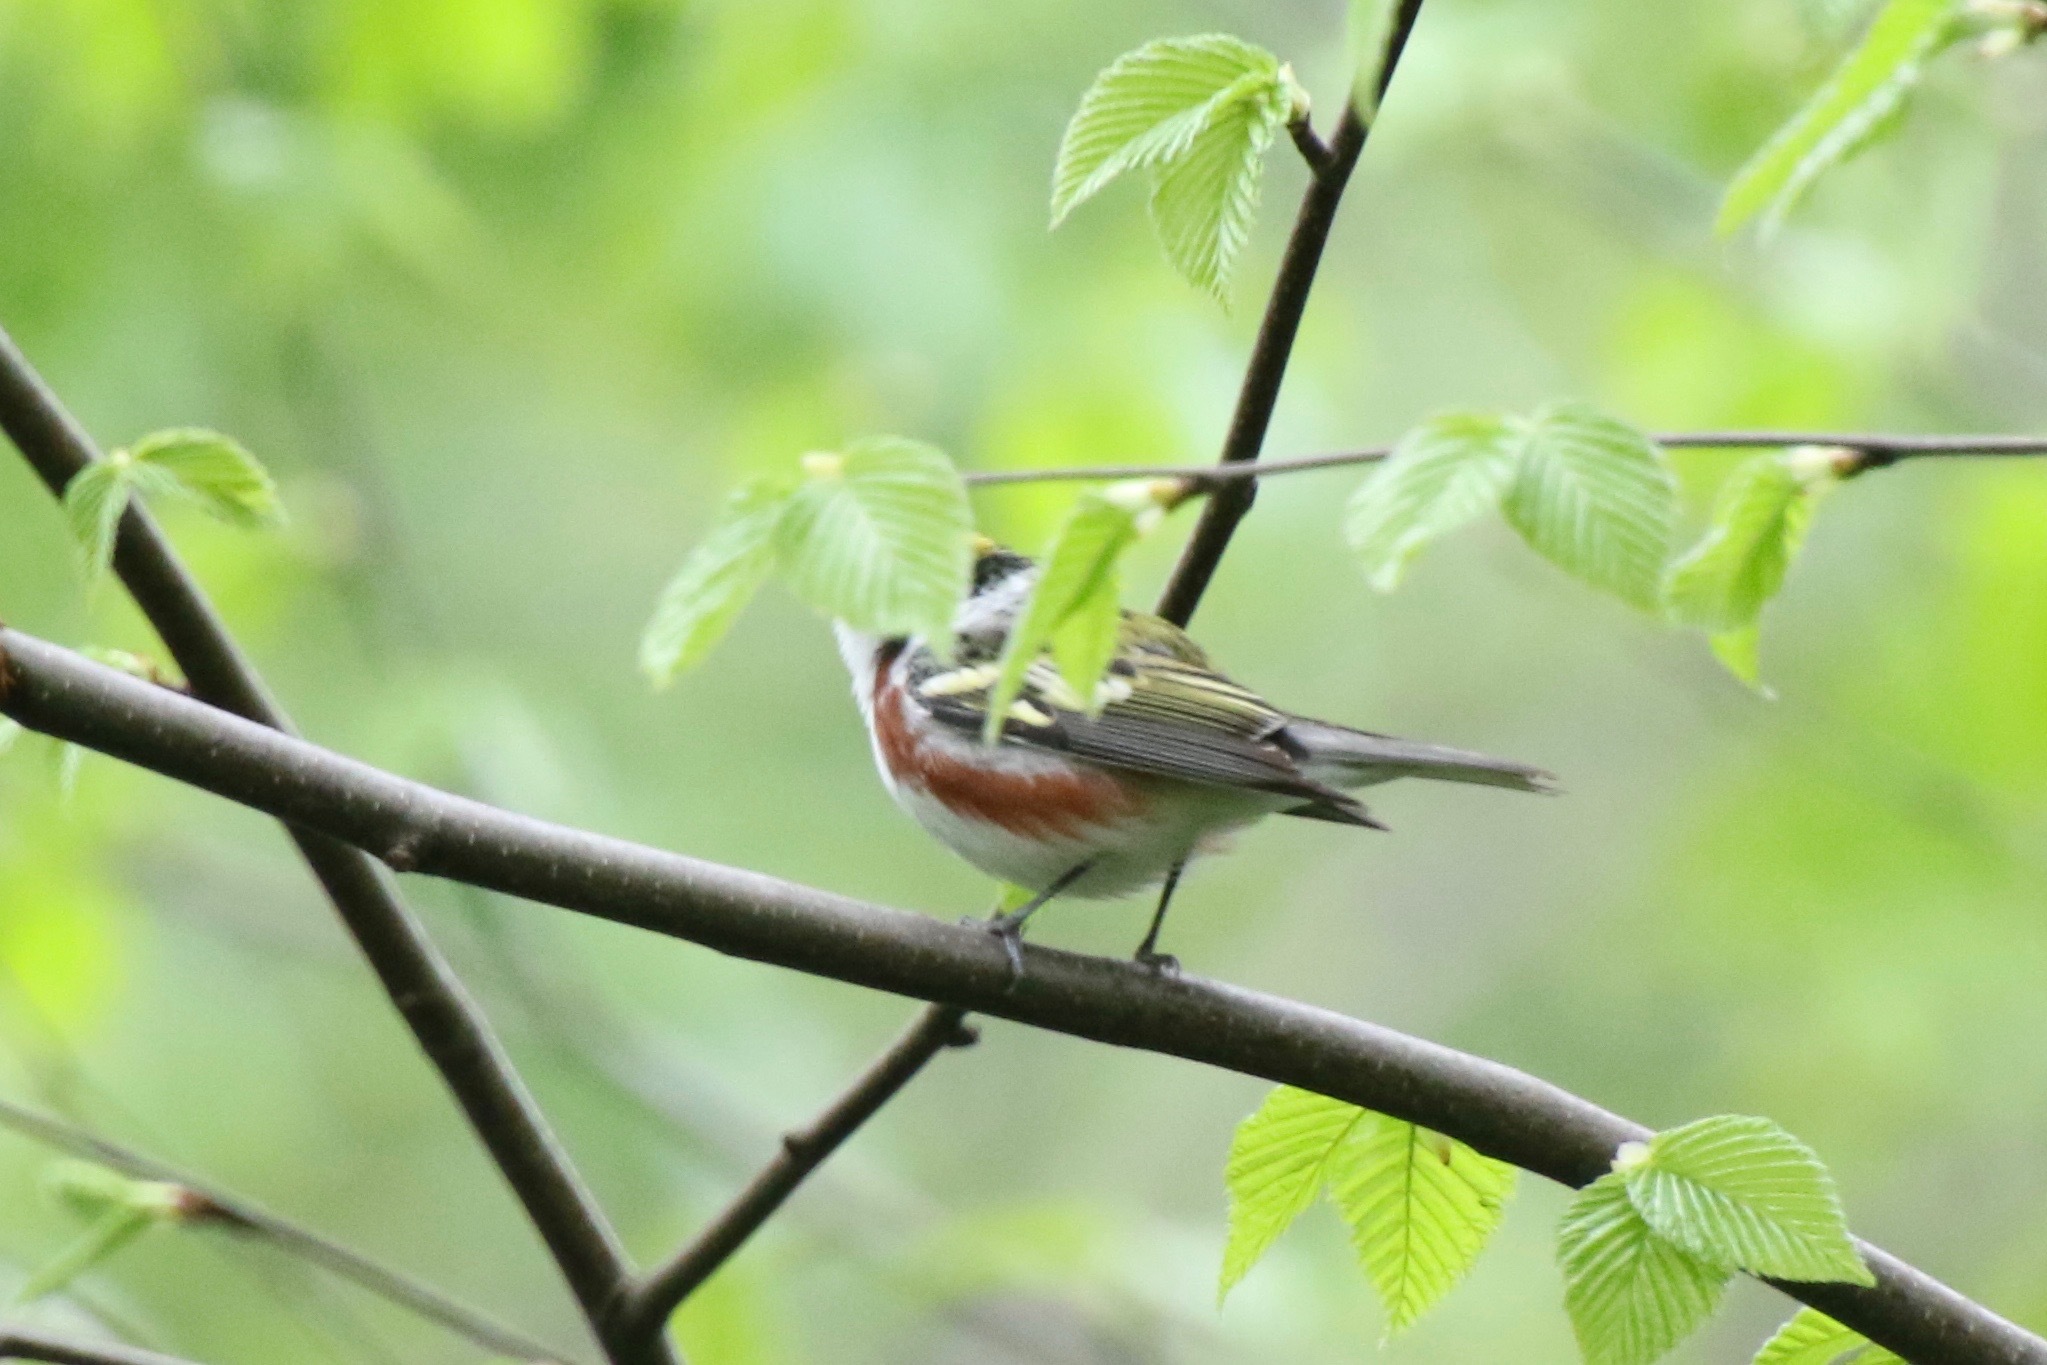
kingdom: Animalia
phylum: Chordata
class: Aves
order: Passeriformes
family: Parulidae
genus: Setophaga
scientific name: Setophaga pensylvanica
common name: Chestnut-sided warbler
